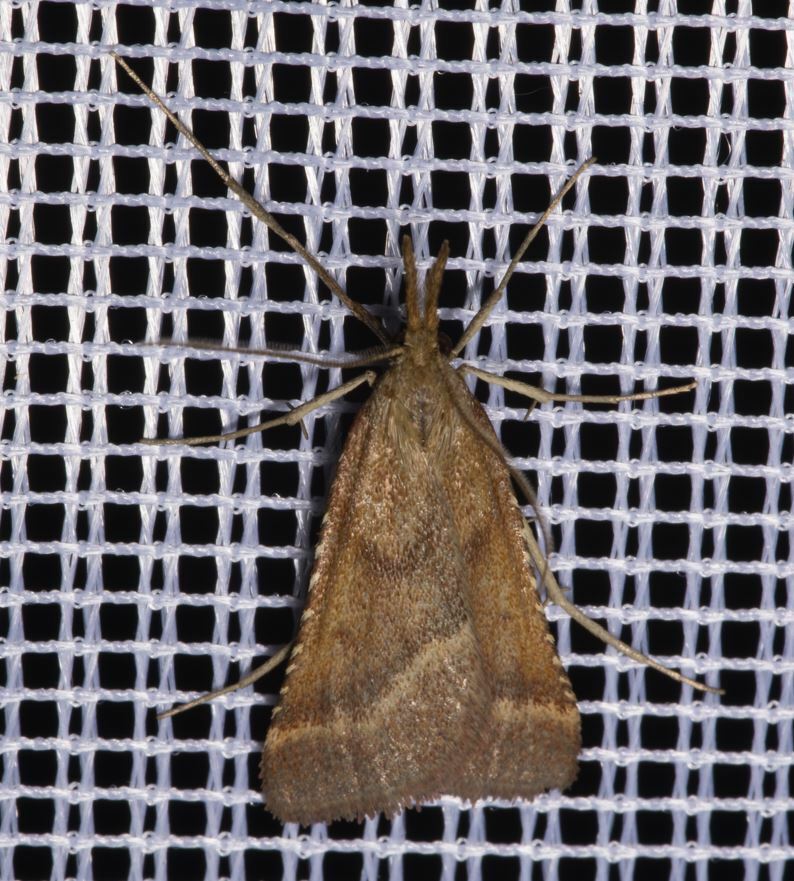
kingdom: Animalia
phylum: Arthropoda
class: Insecta
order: Lepidoptera
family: Pyralidae
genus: Synaphe
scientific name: Synaphe punctalis
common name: Long-legged tabby
